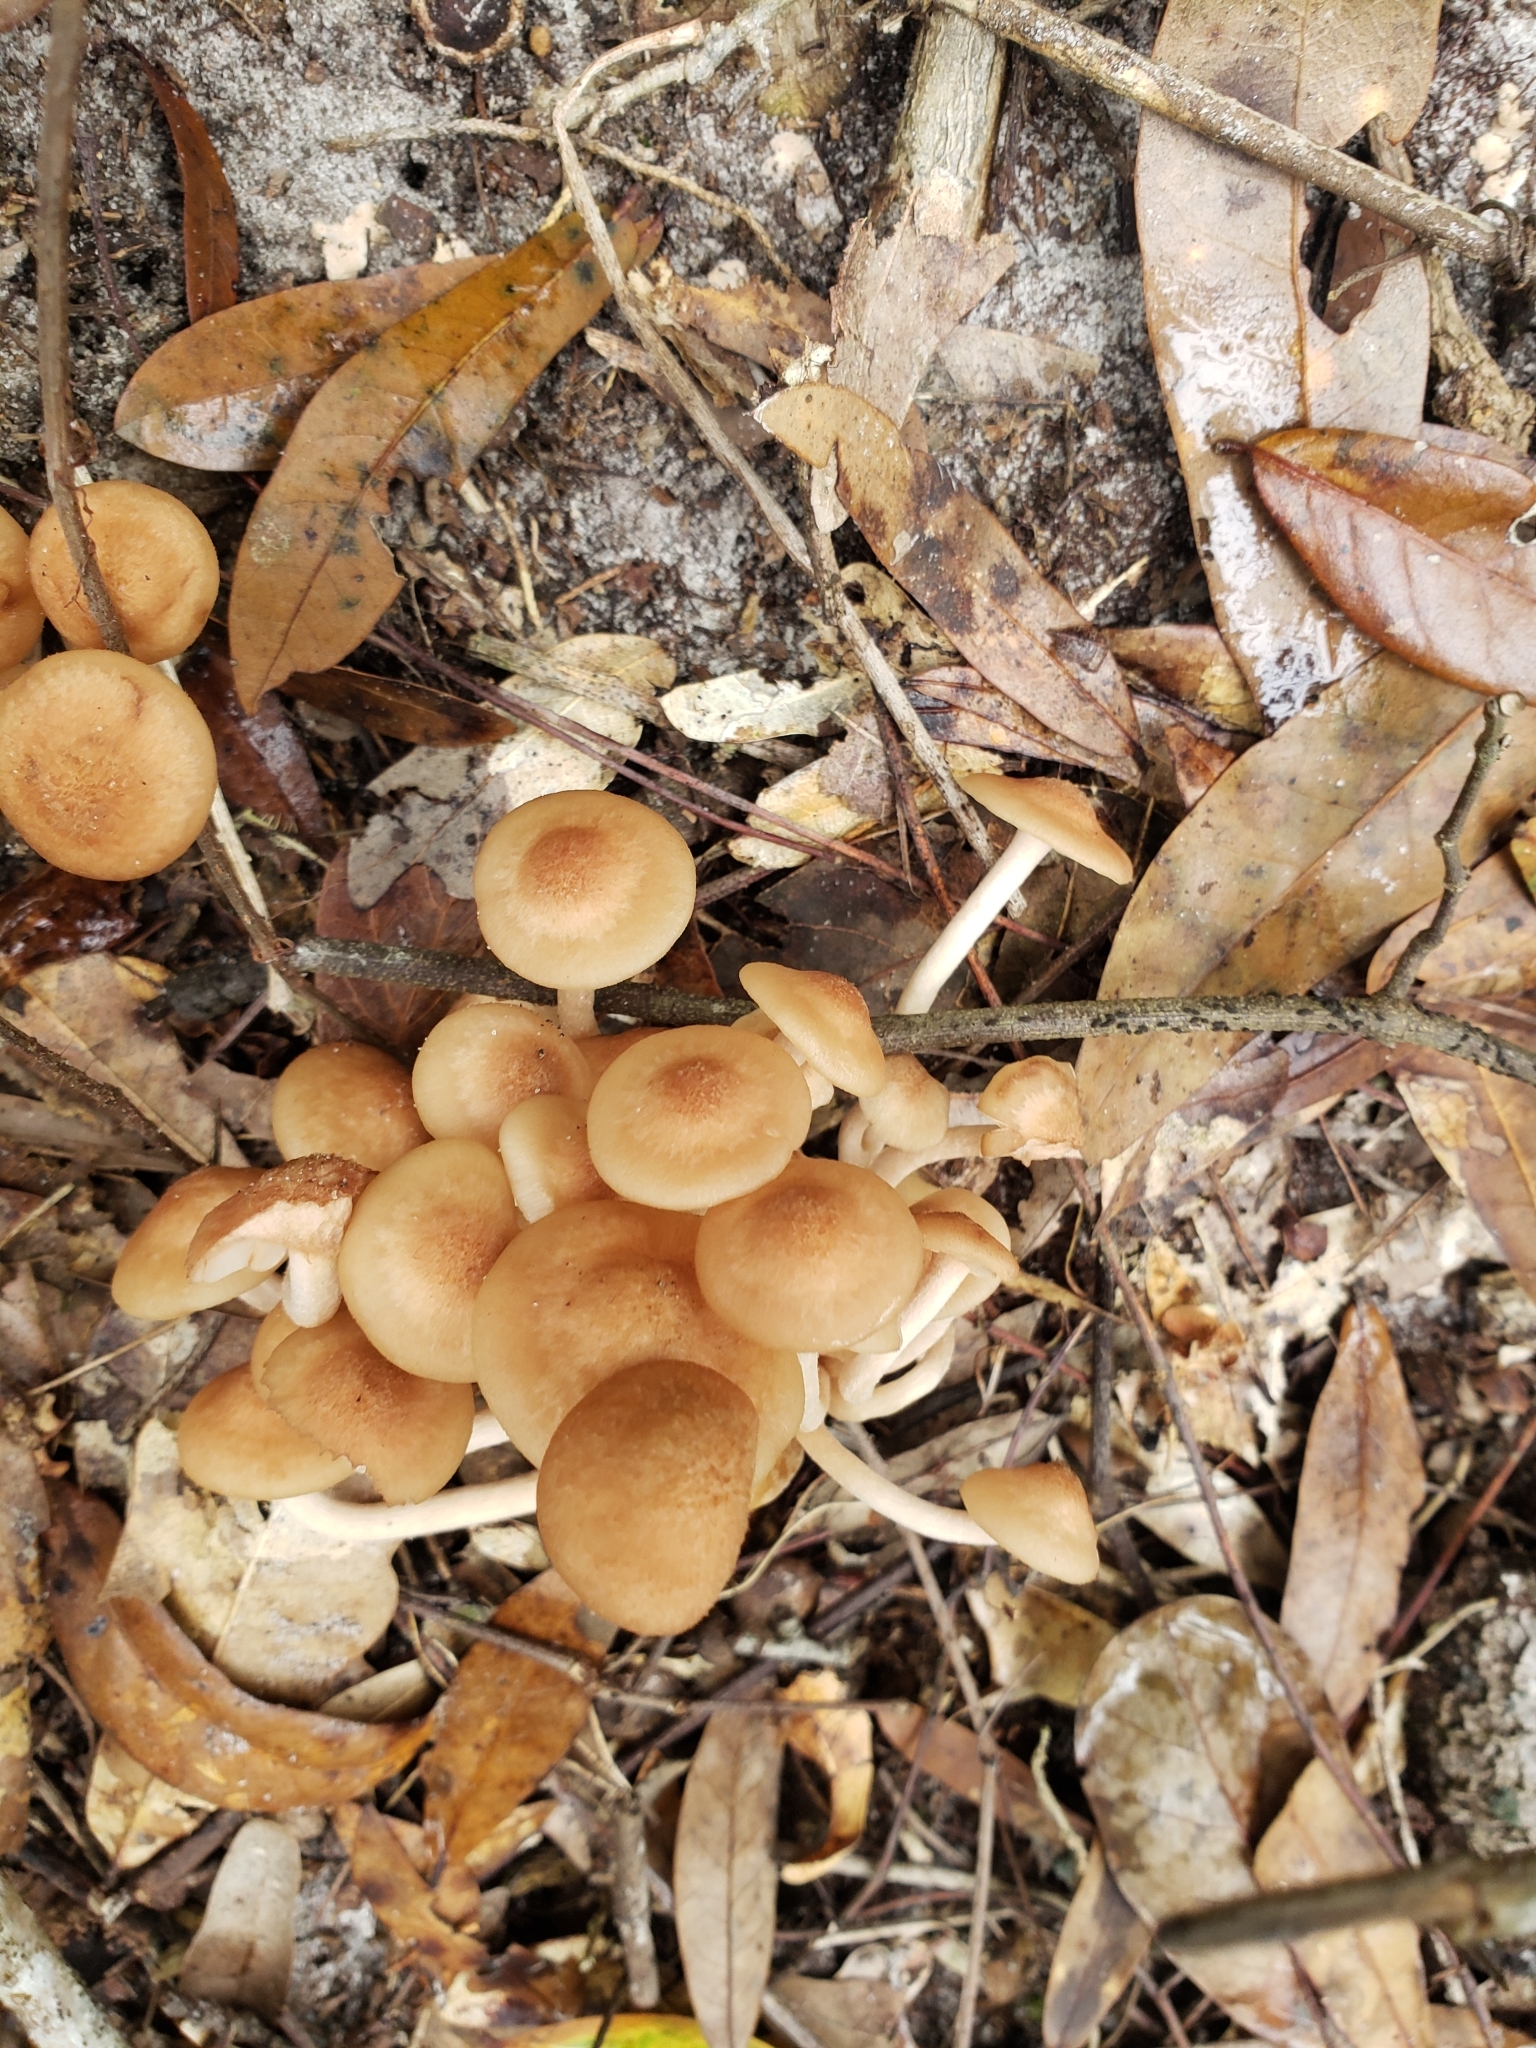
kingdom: Fungi
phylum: Basidiomycota
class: Agaricomycetes
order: Agaricales
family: Physalacriaceae
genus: Desarmillaria
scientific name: Desarmillaria caespitosa
